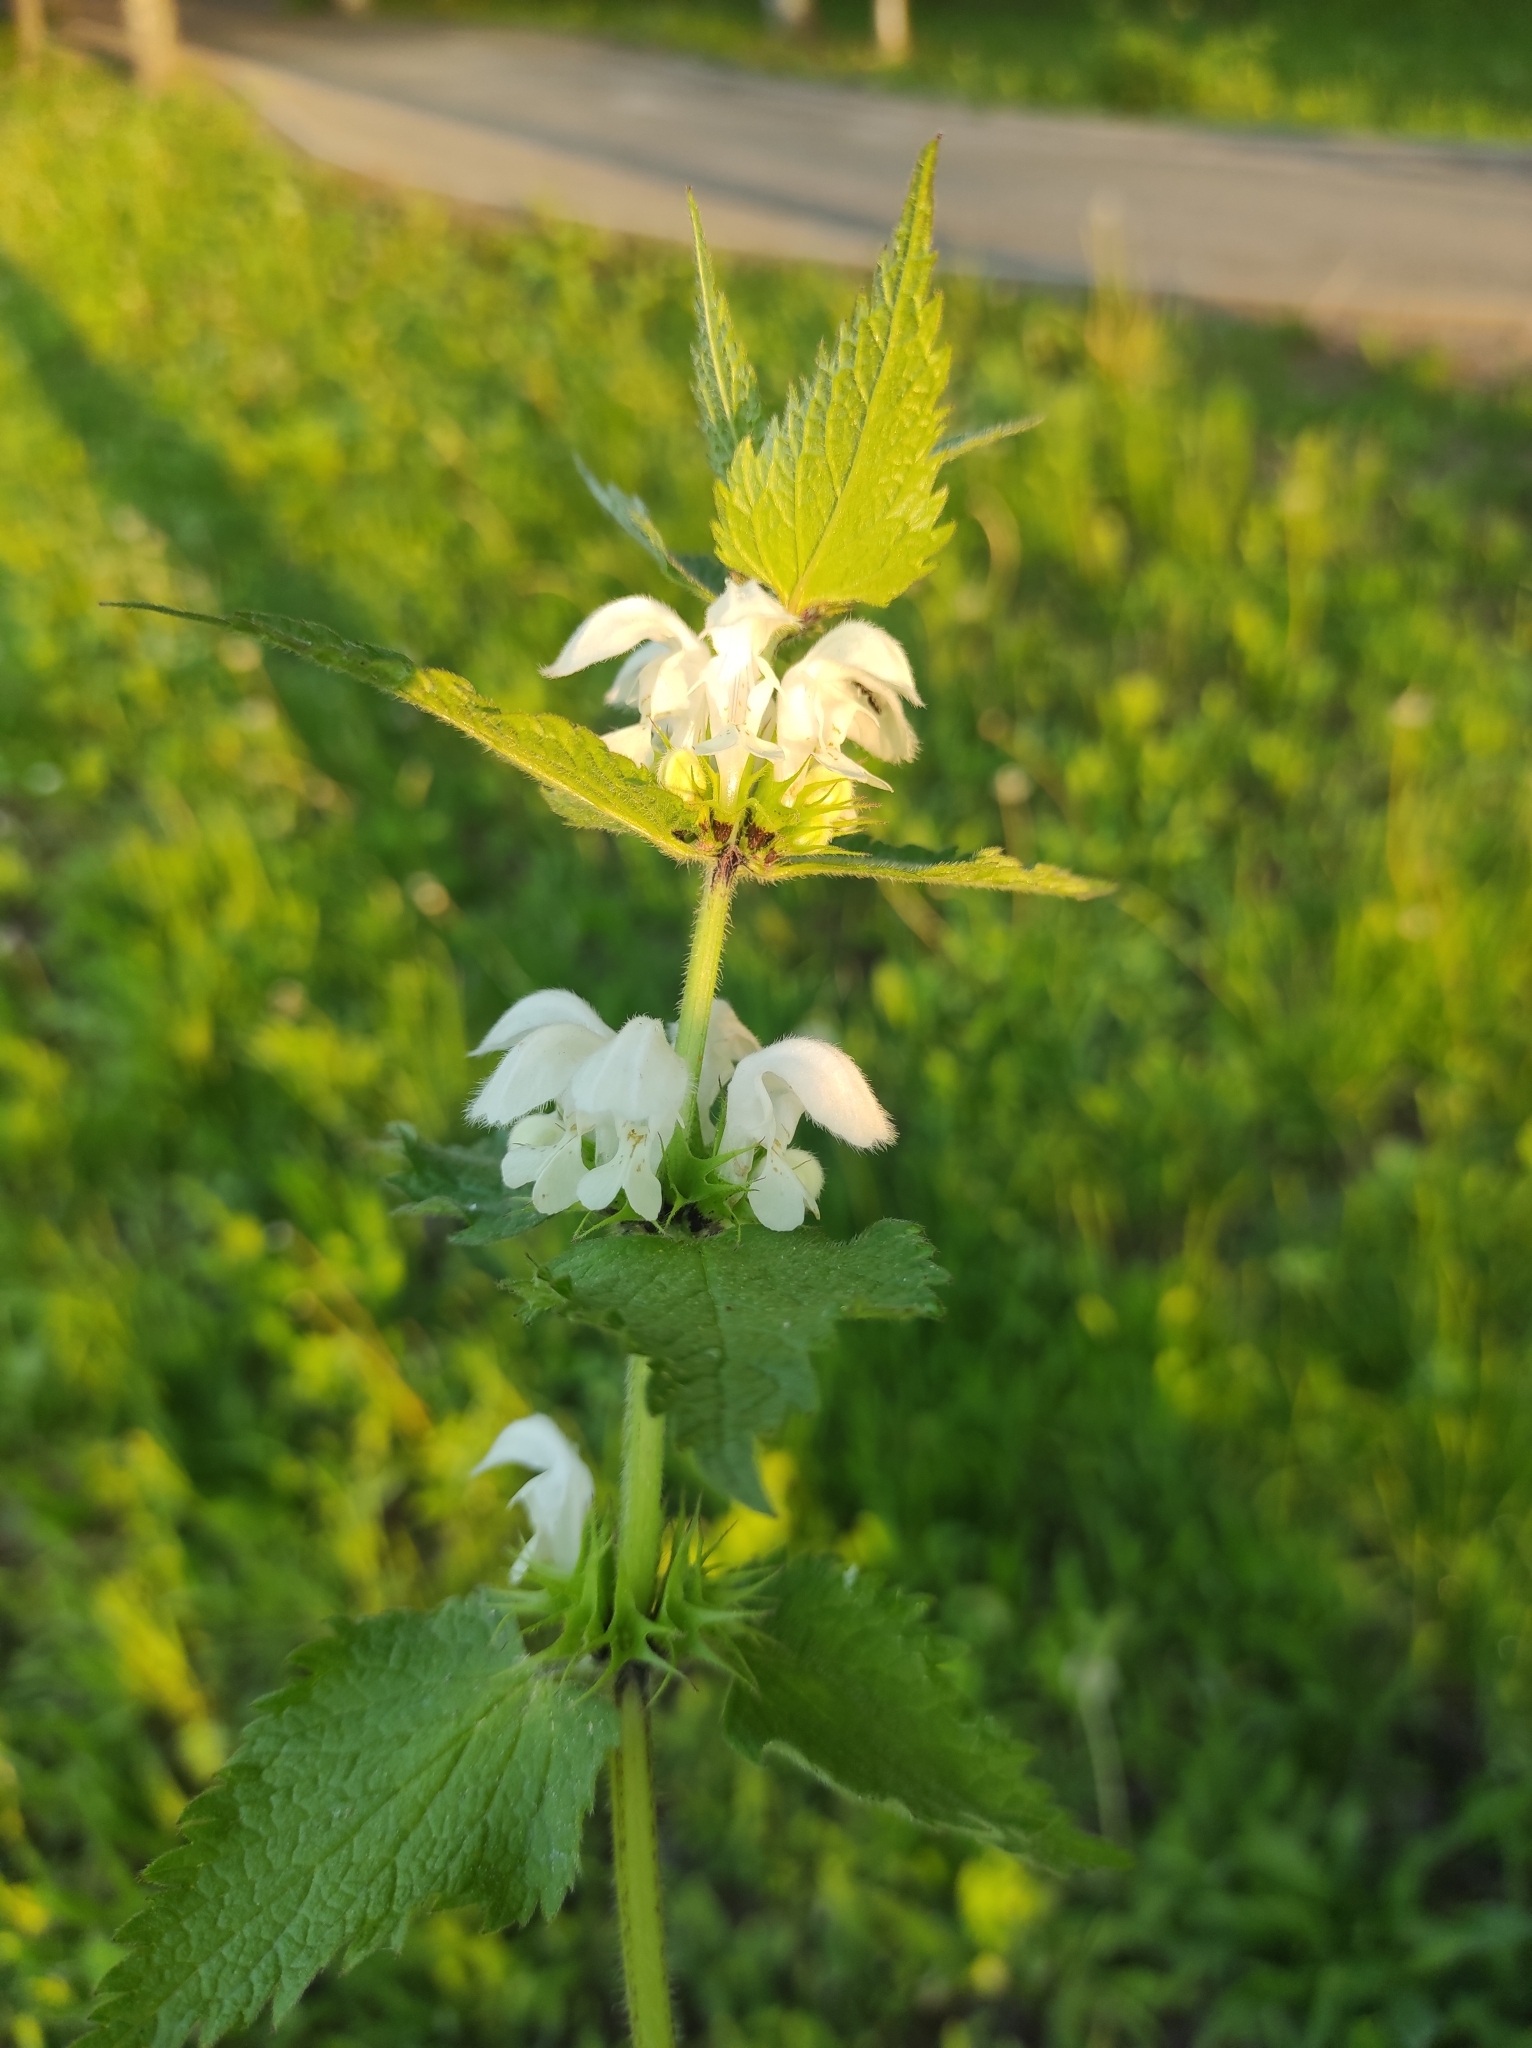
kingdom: Plantae
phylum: Tracheophyta
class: Magnoliopsida
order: Lamiales
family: Lamiaceae
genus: Lamium
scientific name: Lamium album
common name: White dead-nettle
